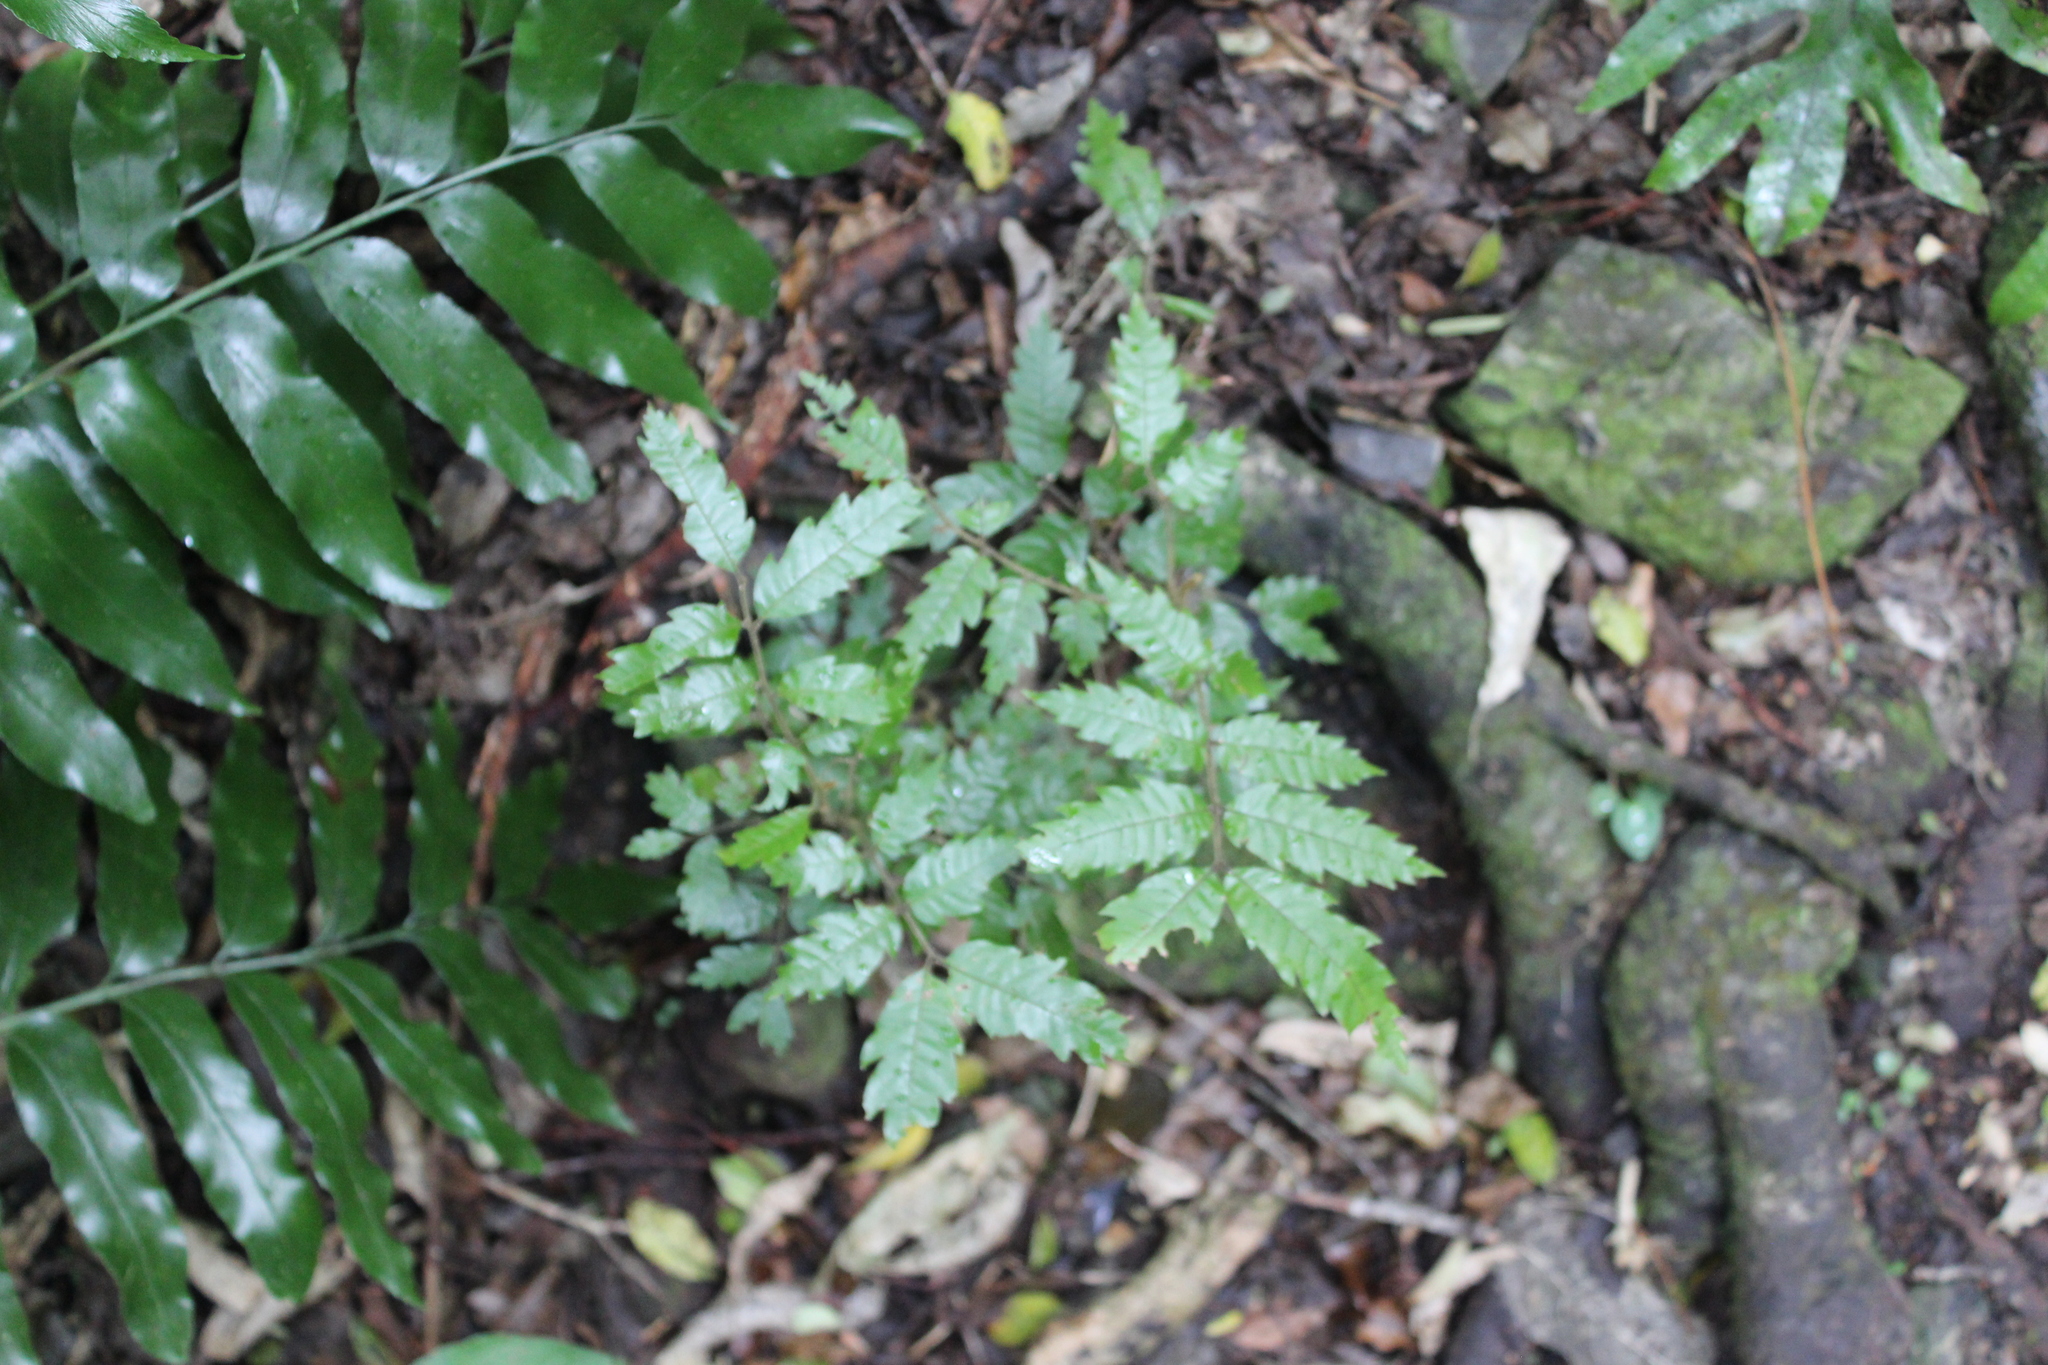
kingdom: Plantae
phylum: Tracheophyta
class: Magnoliopsida
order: Sapindales
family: Sapindaceae
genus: Alectryon
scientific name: Alectryon excelsus
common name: Three kings titoki
